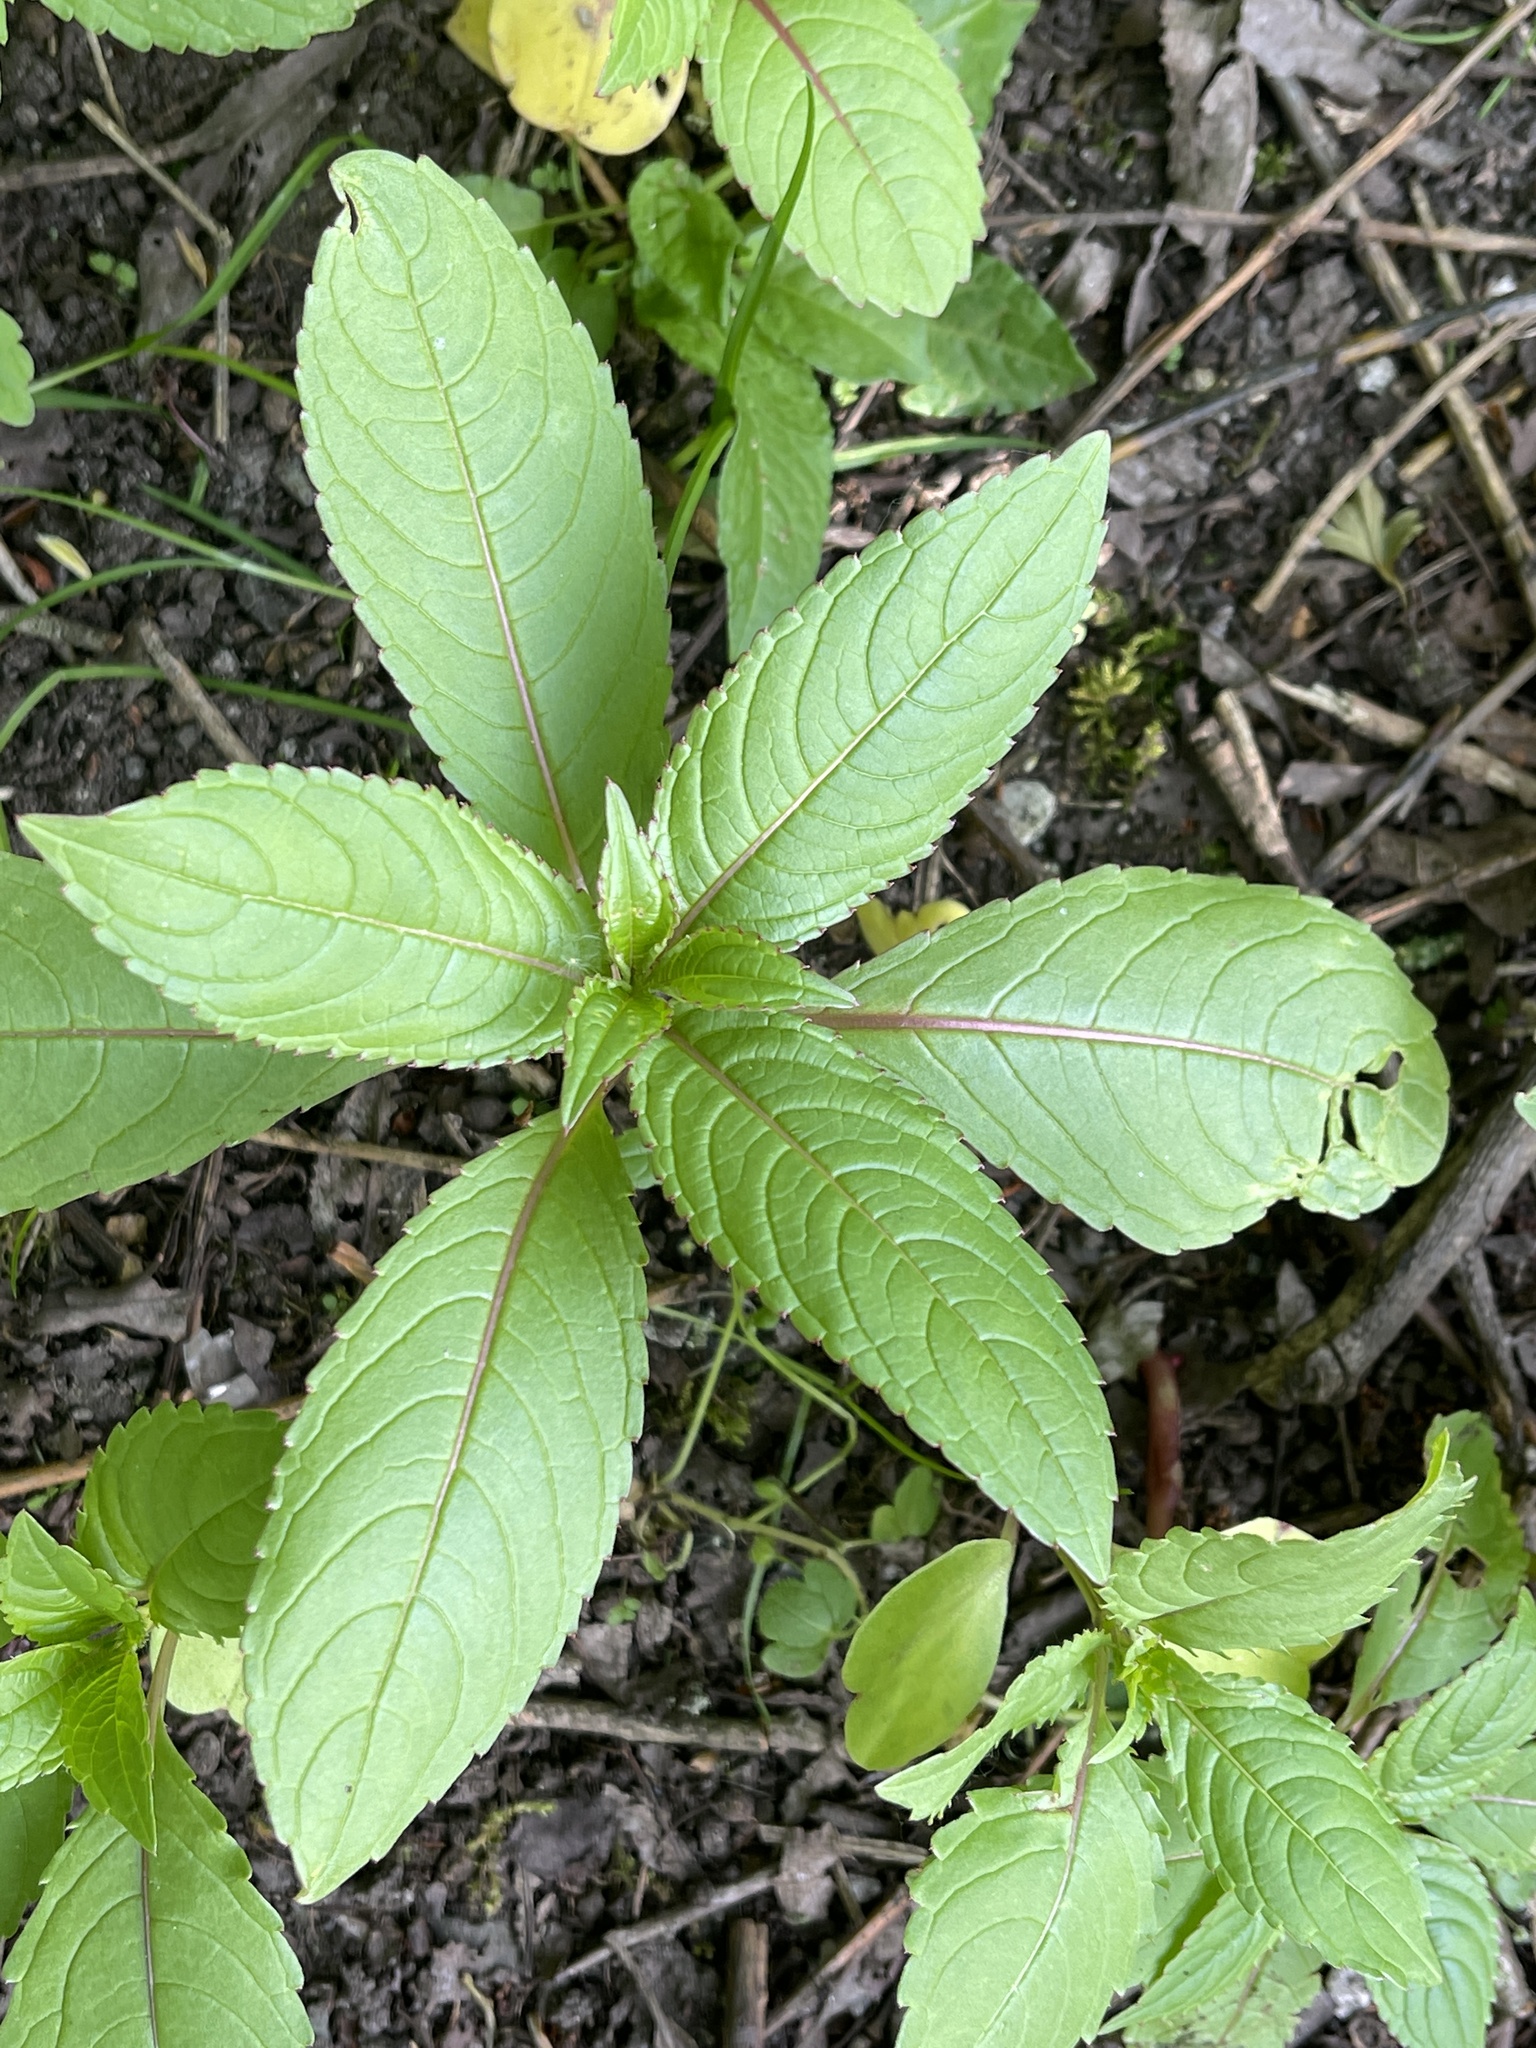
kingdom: Plantae
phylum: Tracheophyta
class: Magnoliopsida
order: Ericales
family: Balsaminaceae
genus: Impatiens
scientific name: Impatiens glandulifera
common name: Himalayan balsam
